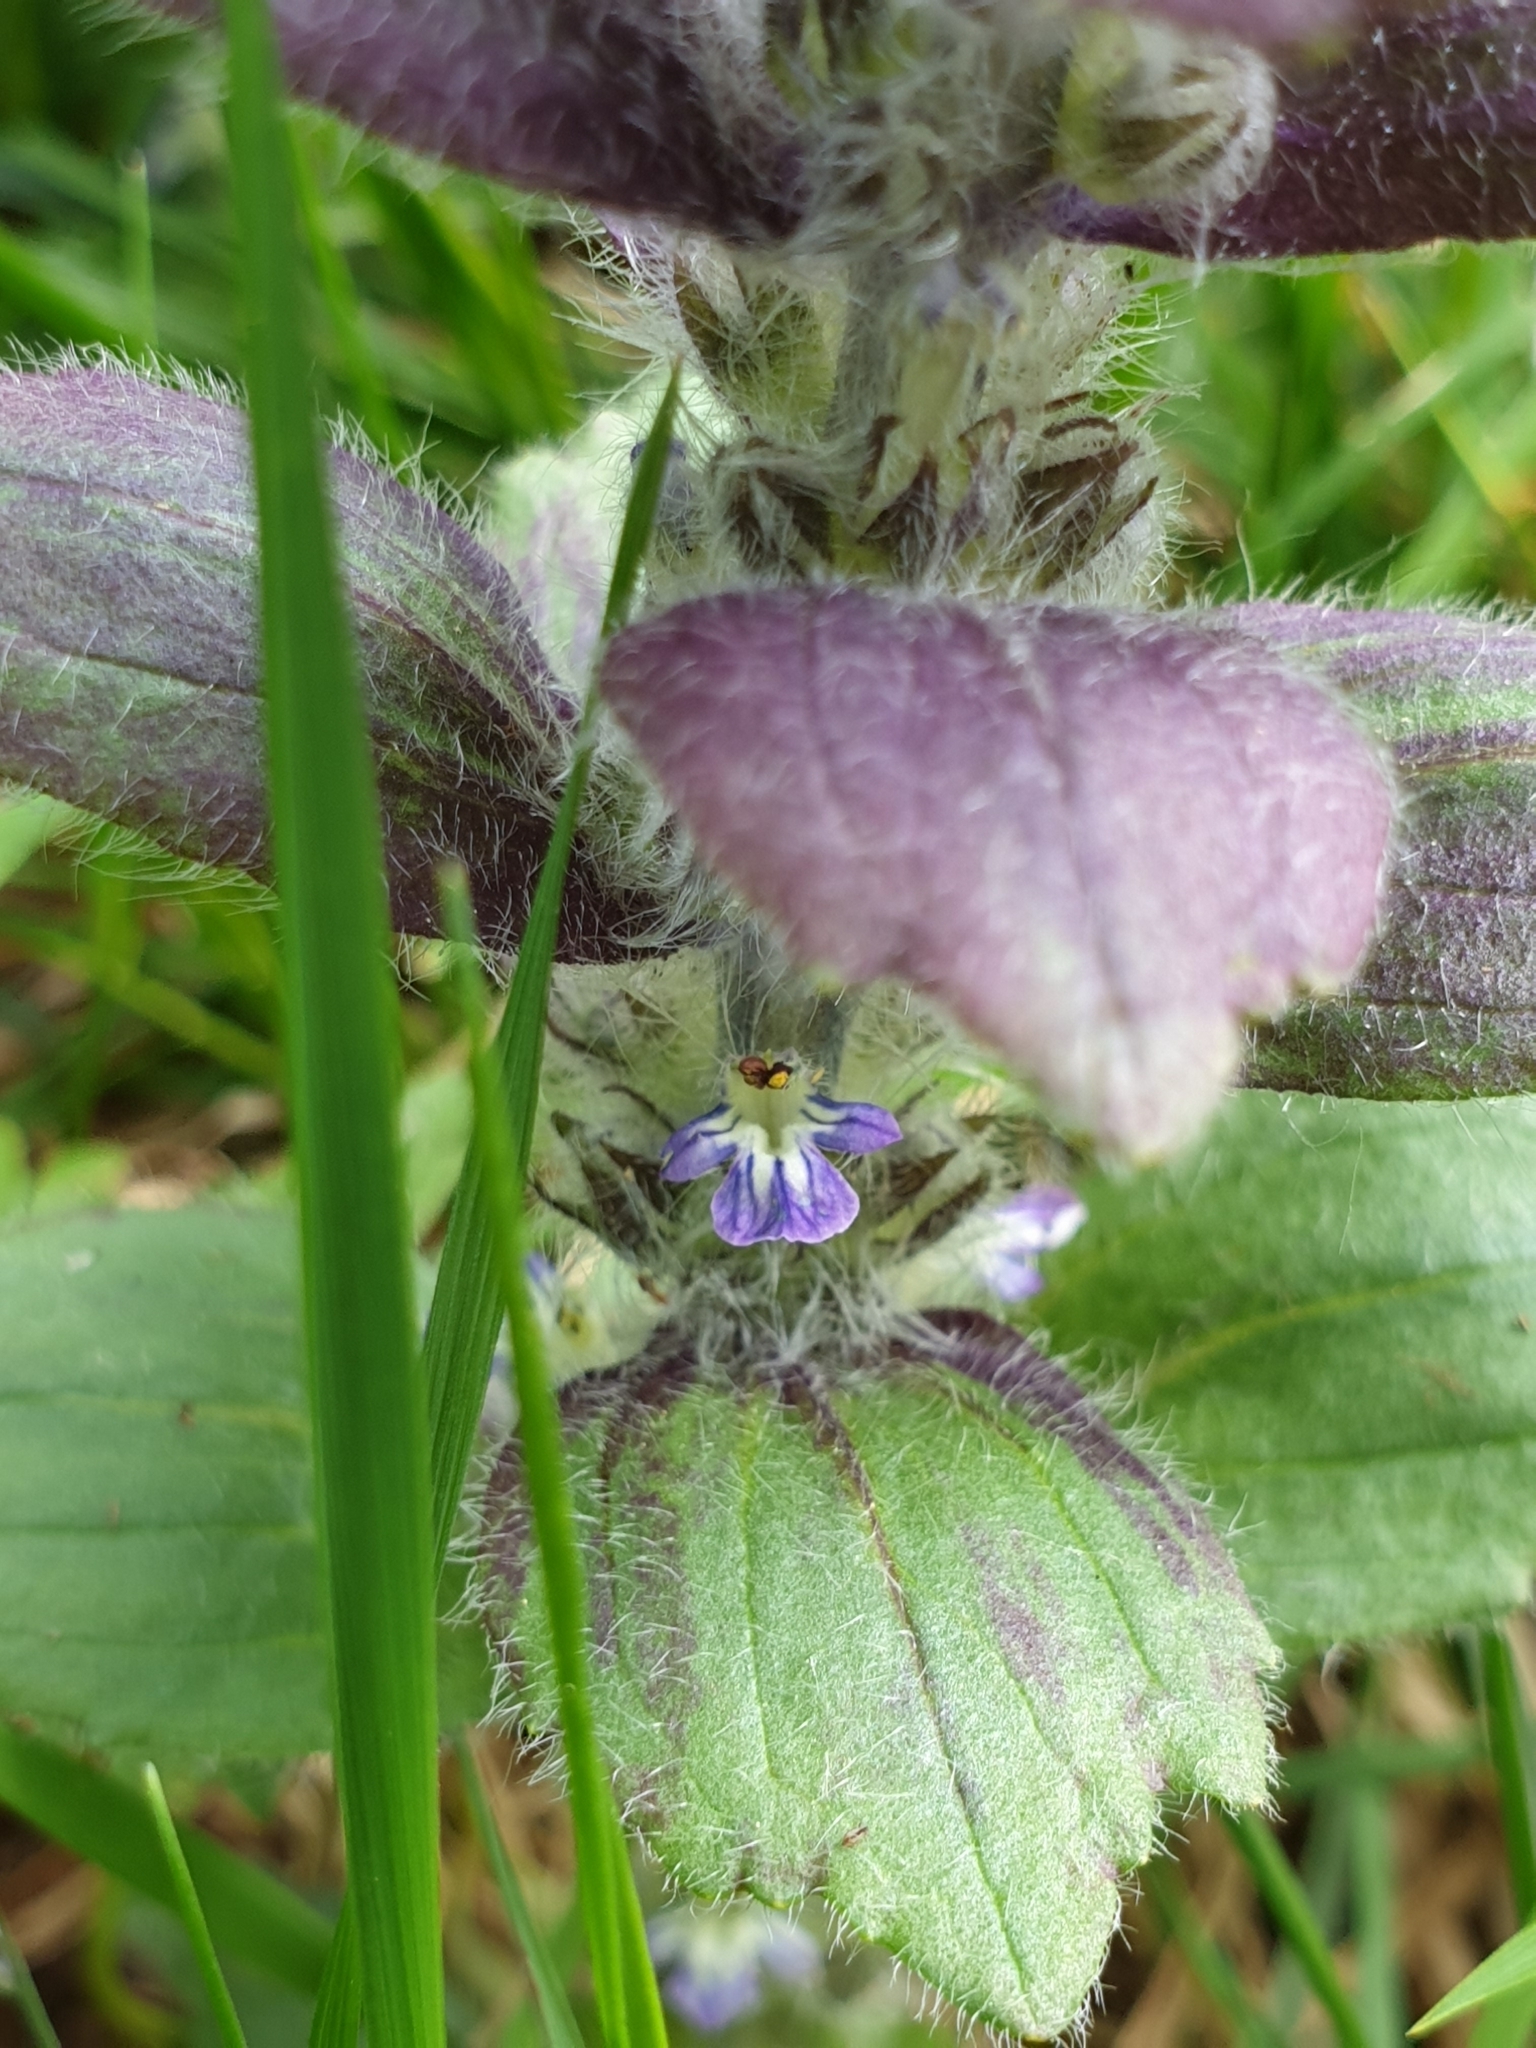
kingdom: Plantae
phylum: Tracheophyta
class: Magnoliopsida
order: Lamiales
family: Lamiaceae
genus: Ajuga
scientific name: Ajuga pyramidalis
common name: Pyramid bugle
